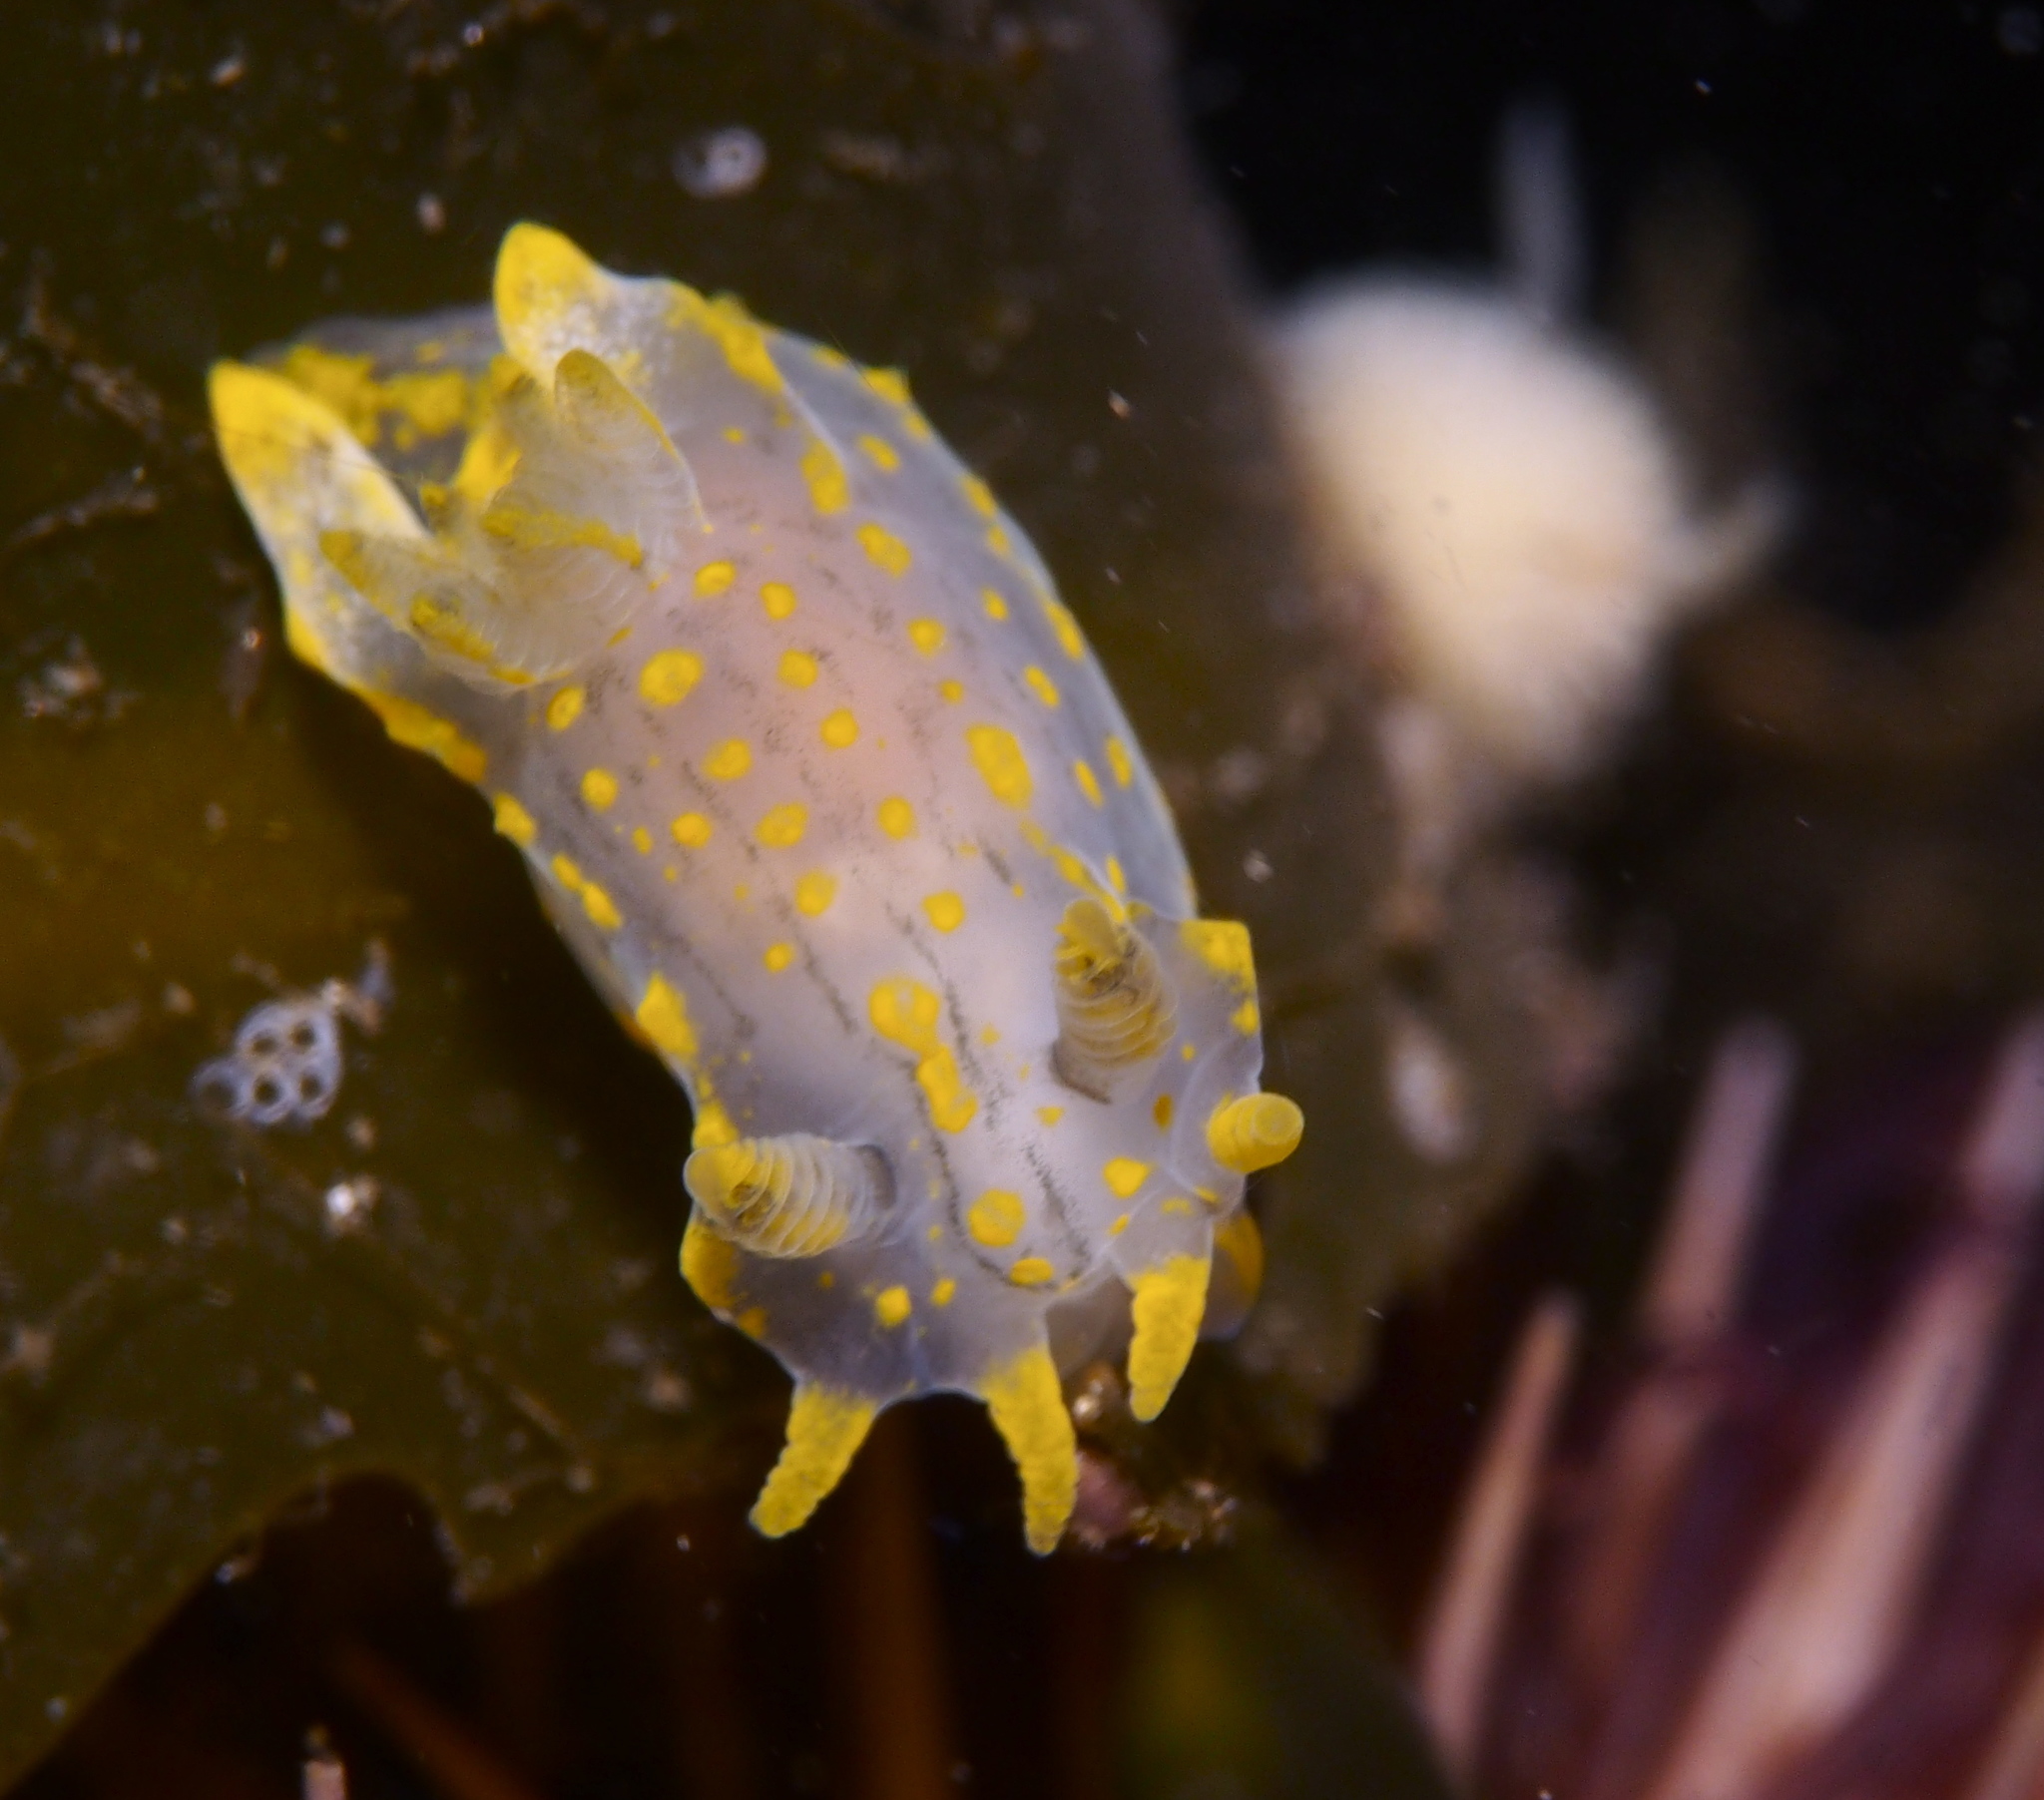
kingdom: Animalia
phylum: Mollusca
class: Gastropoda
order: Nudibranchia
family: Polyceridae
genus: Polycera
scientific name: Polycera quadrilineata
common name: Four-striped polycera
